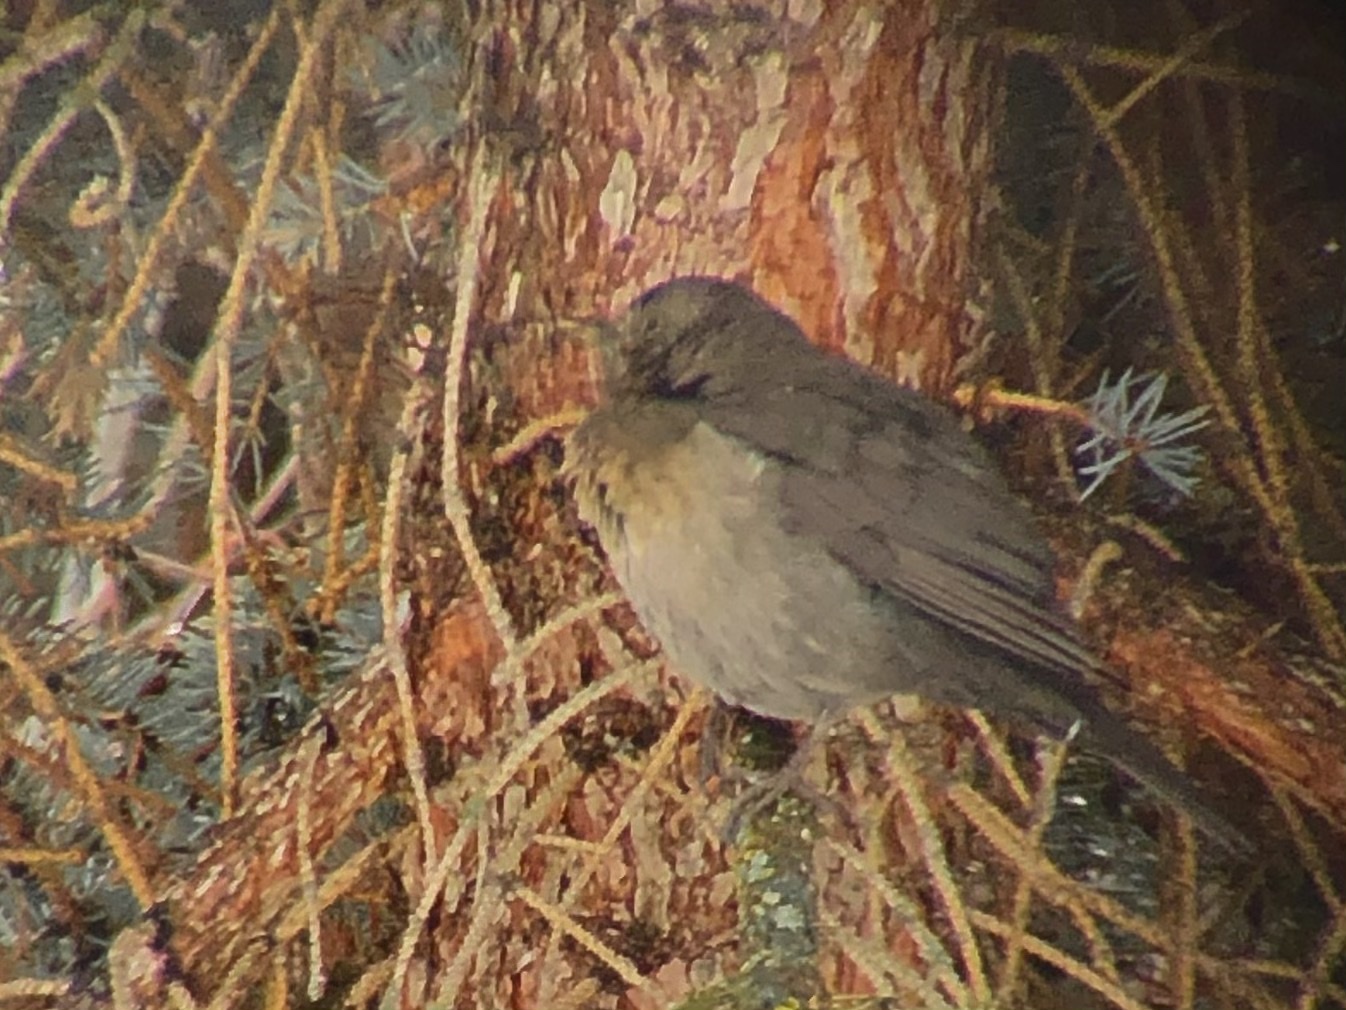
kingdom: Animalia
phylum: Chordata
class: Aves
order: Passeriformes
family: Turdidae
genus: Turdus
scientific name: Turdus merula
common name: Common blackbird
